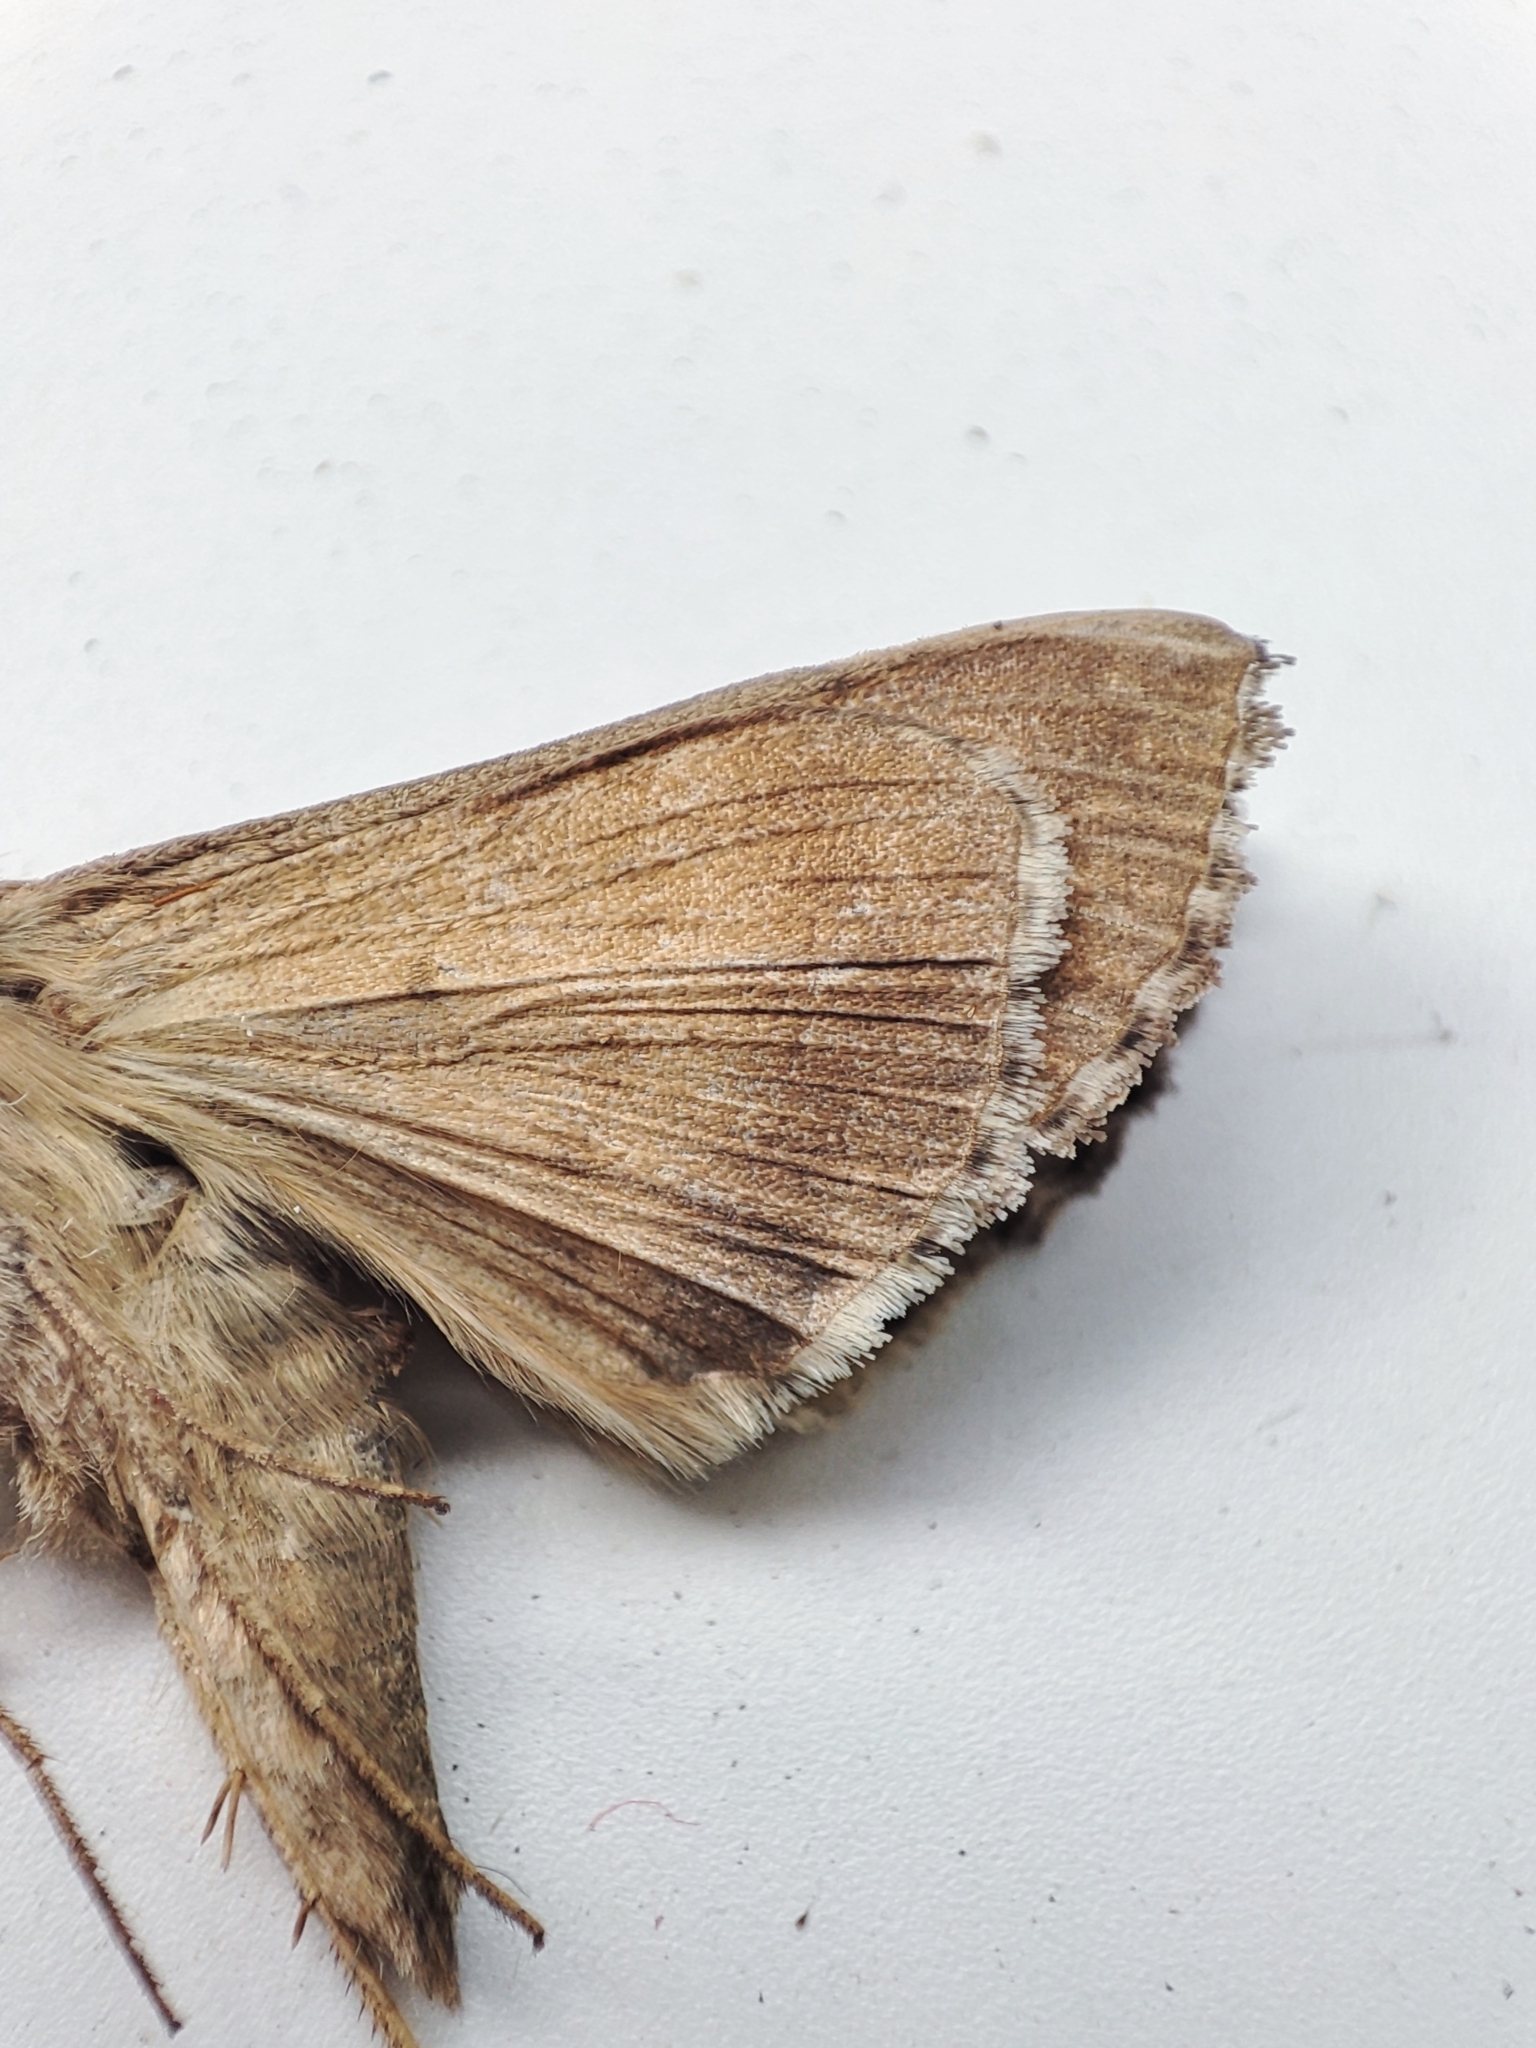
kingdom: Animalia
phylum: Arthropoda
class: Insecta
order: Lepidoptera
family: Noctuidae
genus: Autographa
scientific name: Autographa gamma
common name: Silver y
